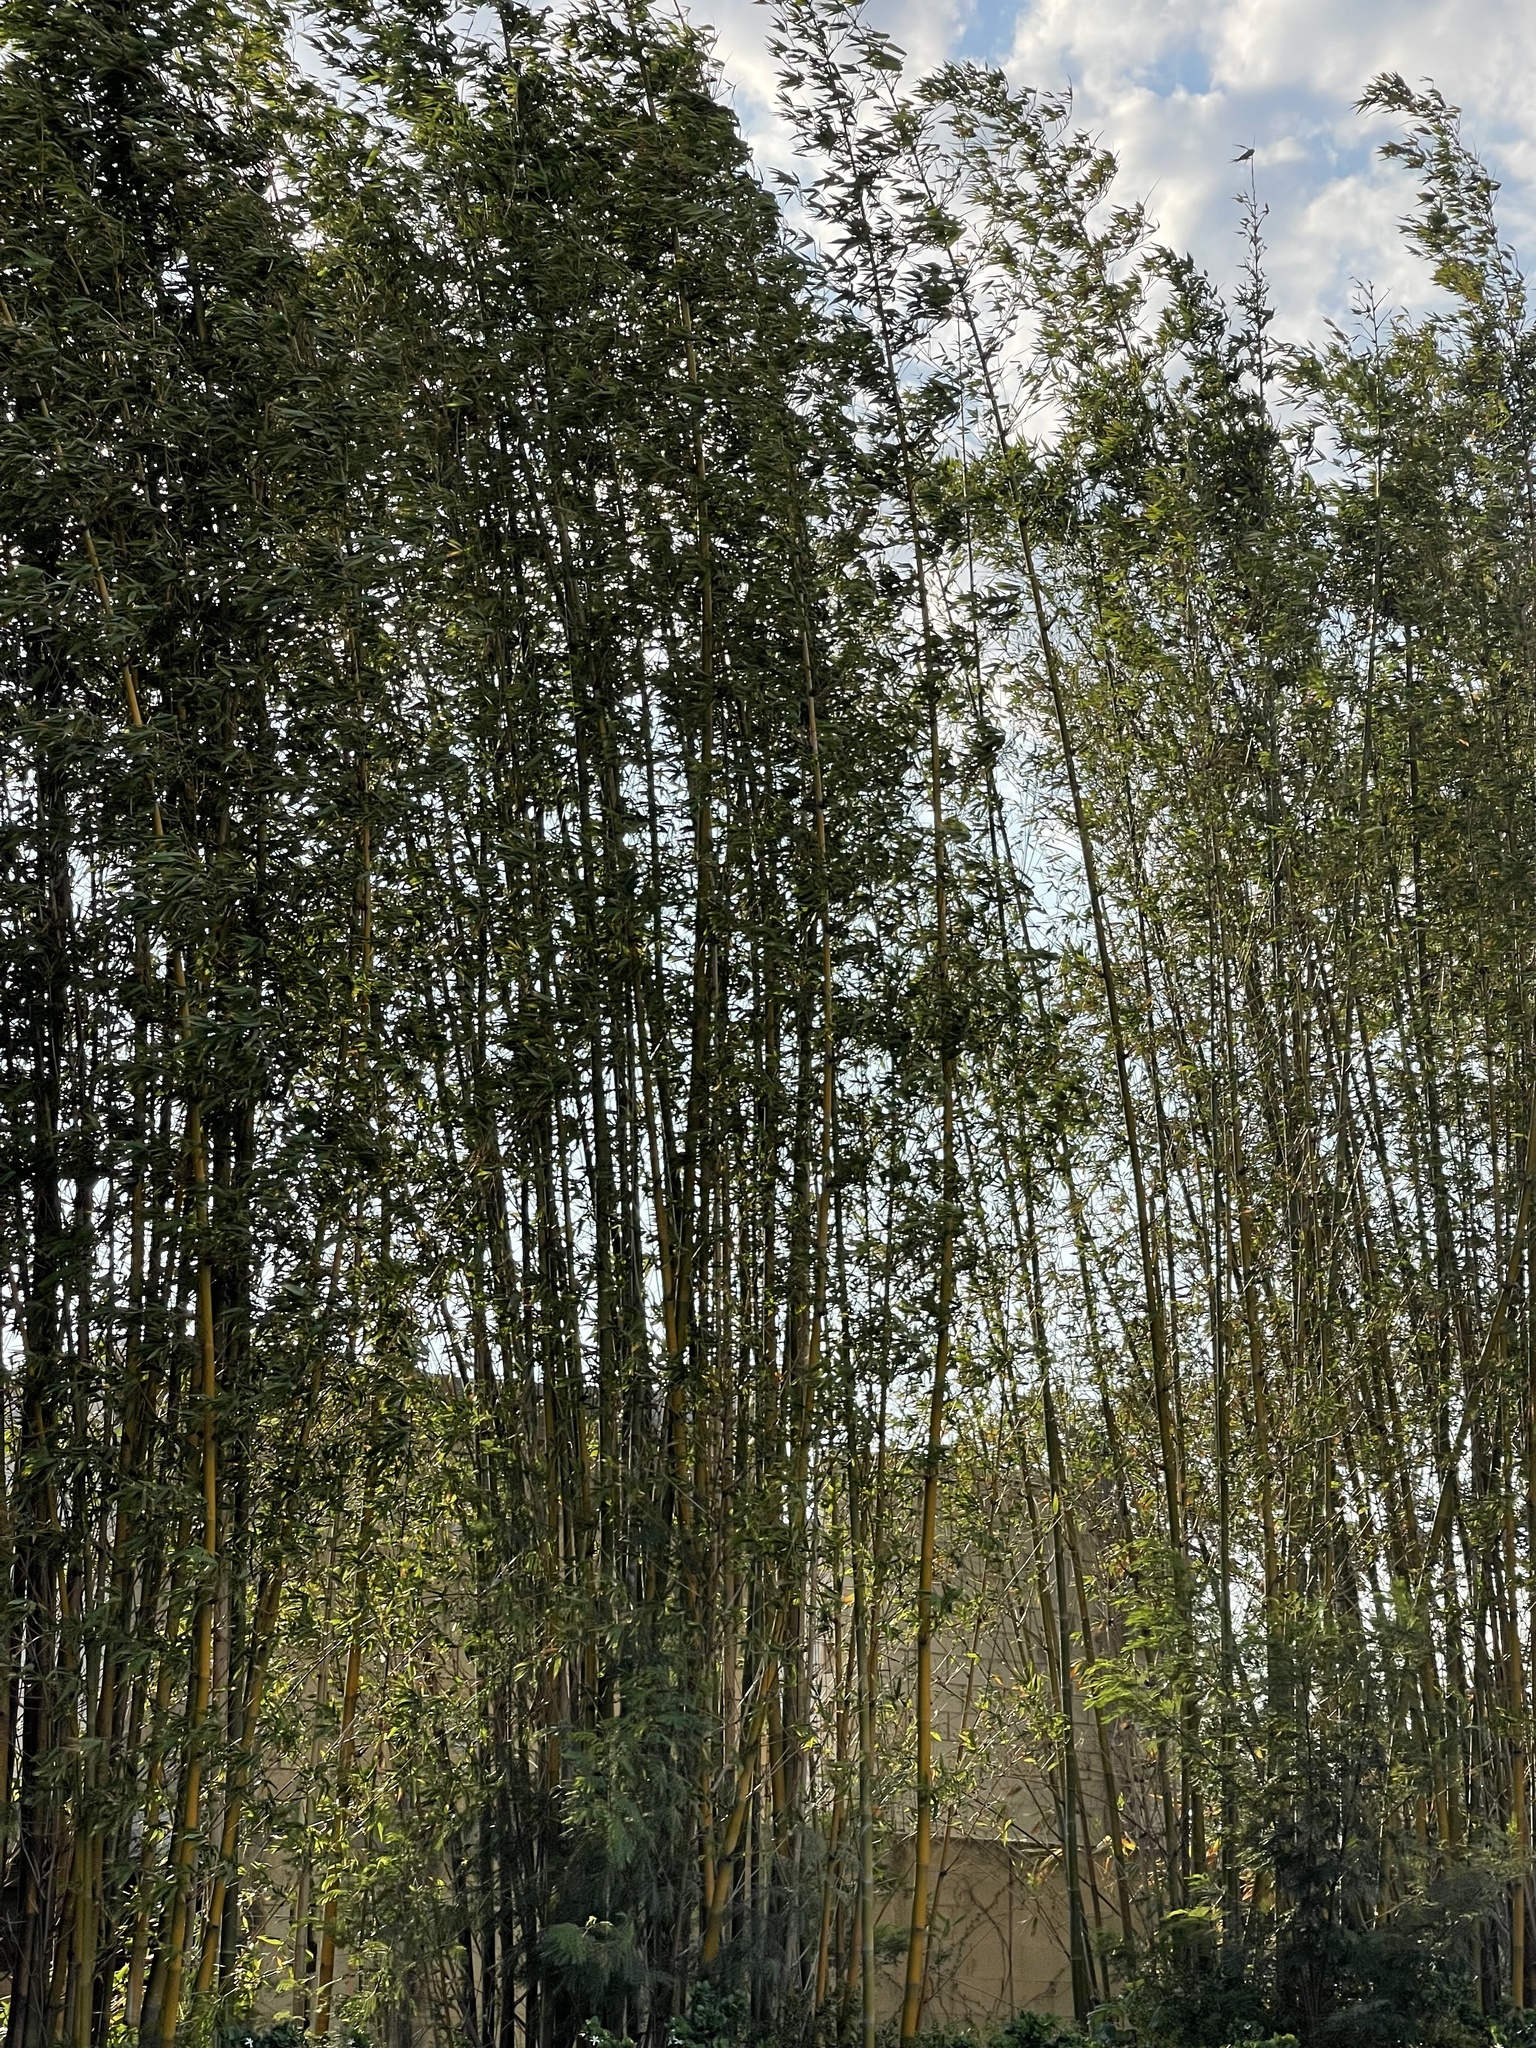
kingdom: Plantae
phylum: Tracheophyta
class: Liliopsida
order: Poales
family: Poaceae
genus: Bambusa
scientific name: Bambusa oldhamii
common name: Giant timber bamboo
